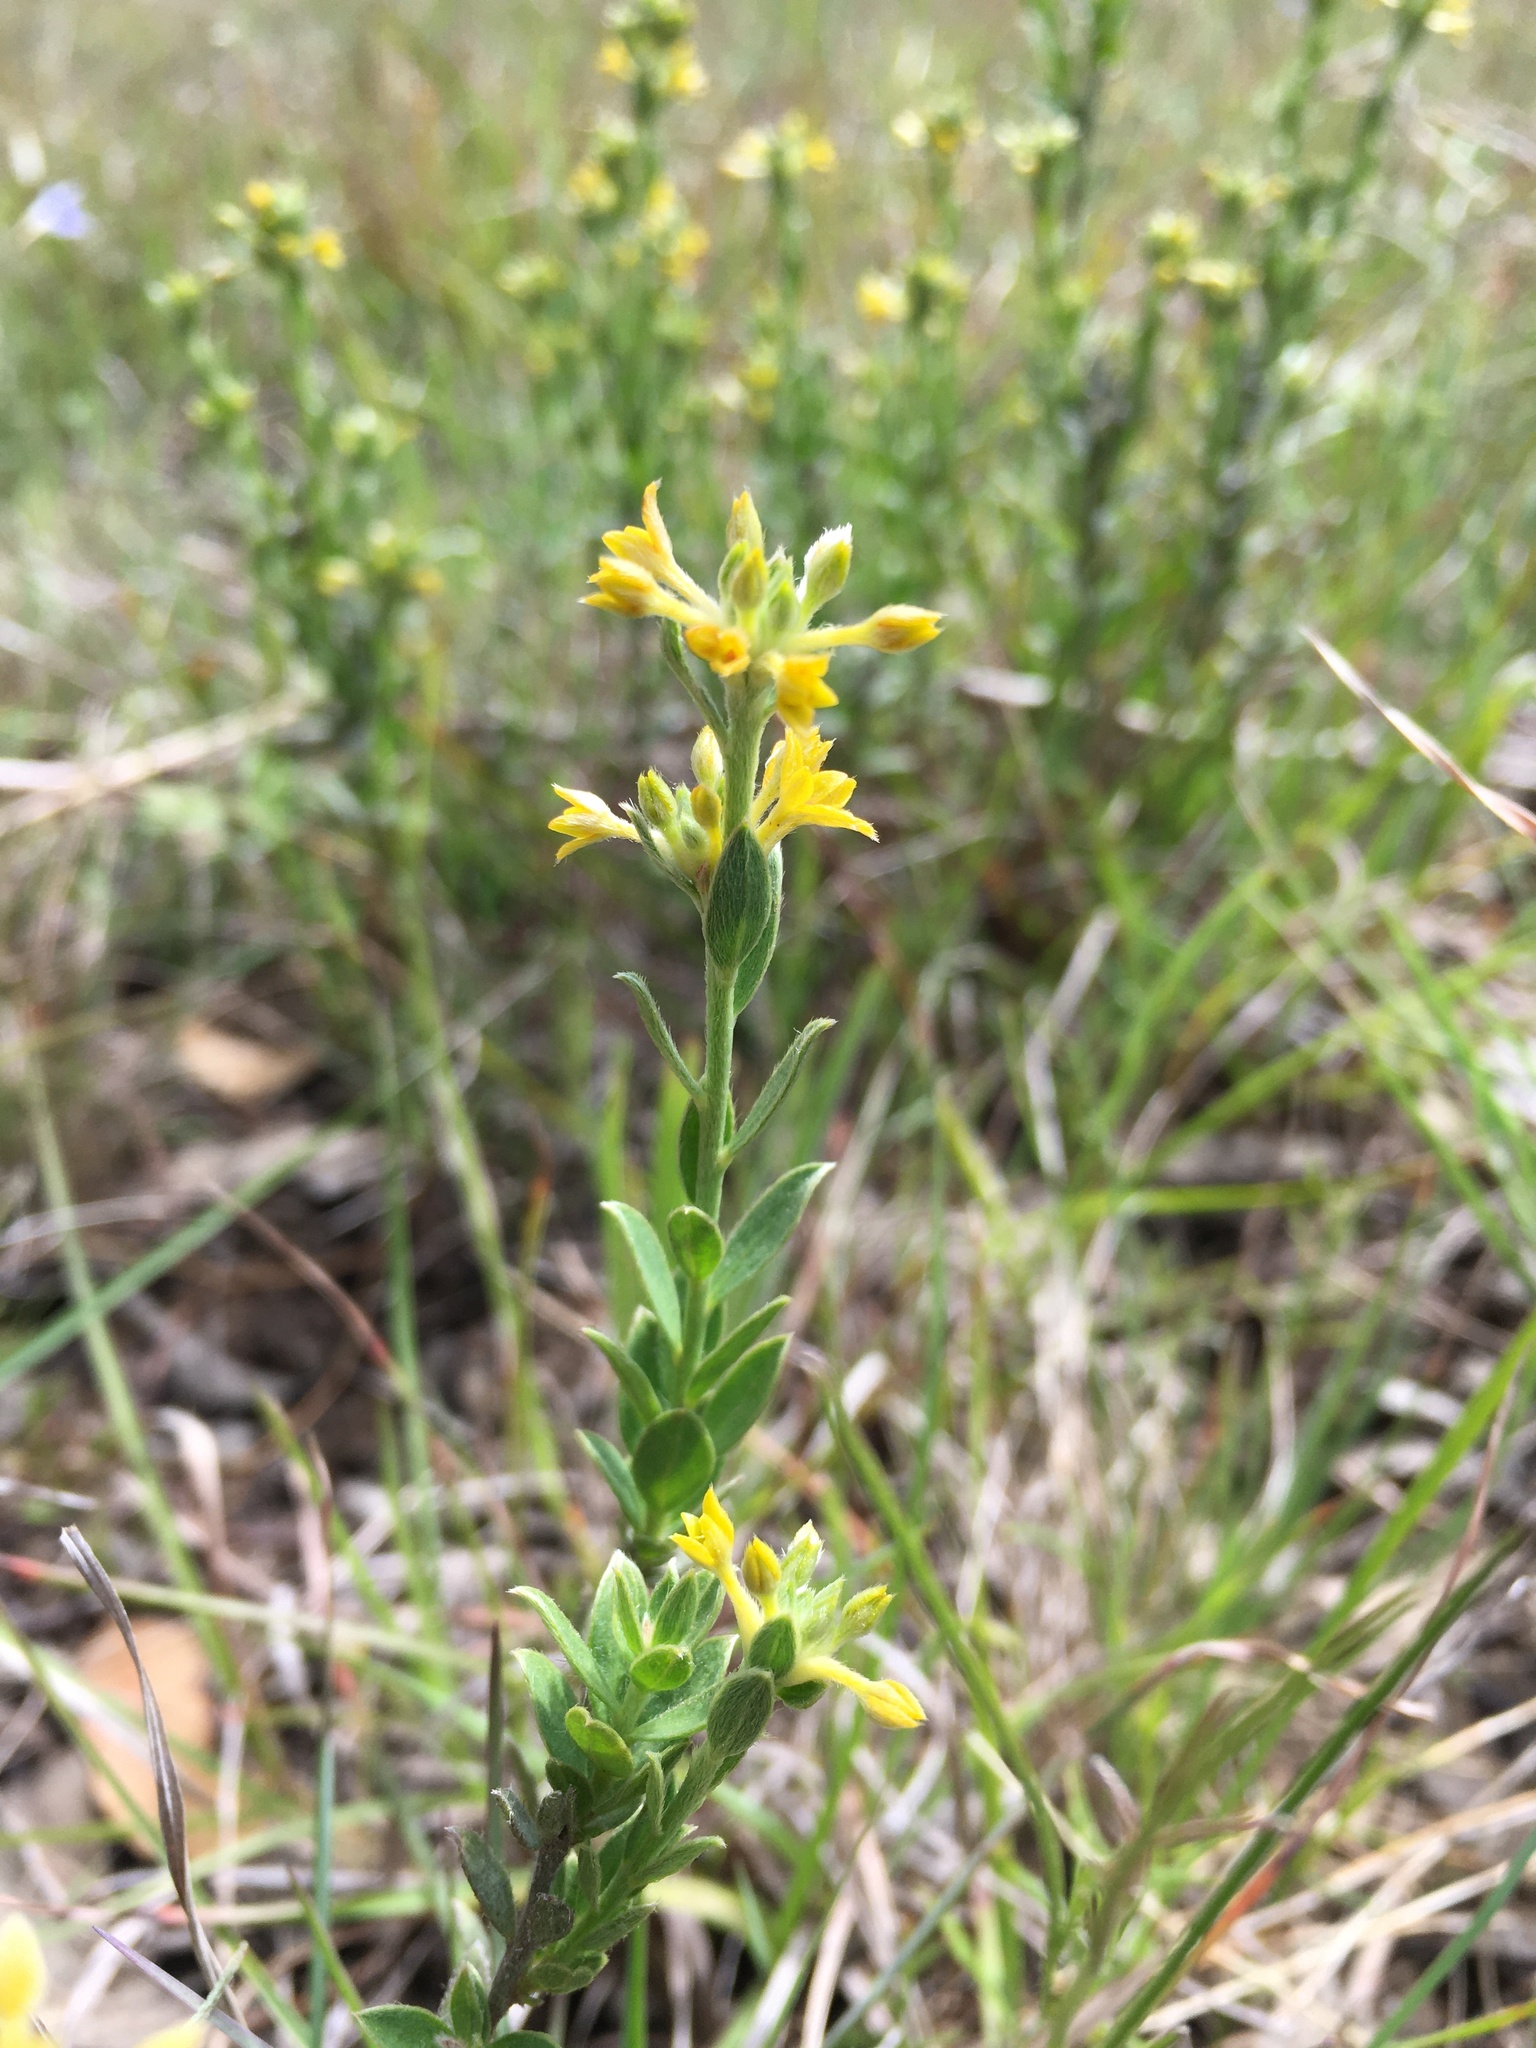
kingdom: Plantae
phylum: Tracheophyta
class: Magnoliopsida
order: Malvales
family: Thymelaeaceae
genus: Pimelea
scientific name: Pimelea curviflora
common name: Curved riceflower
